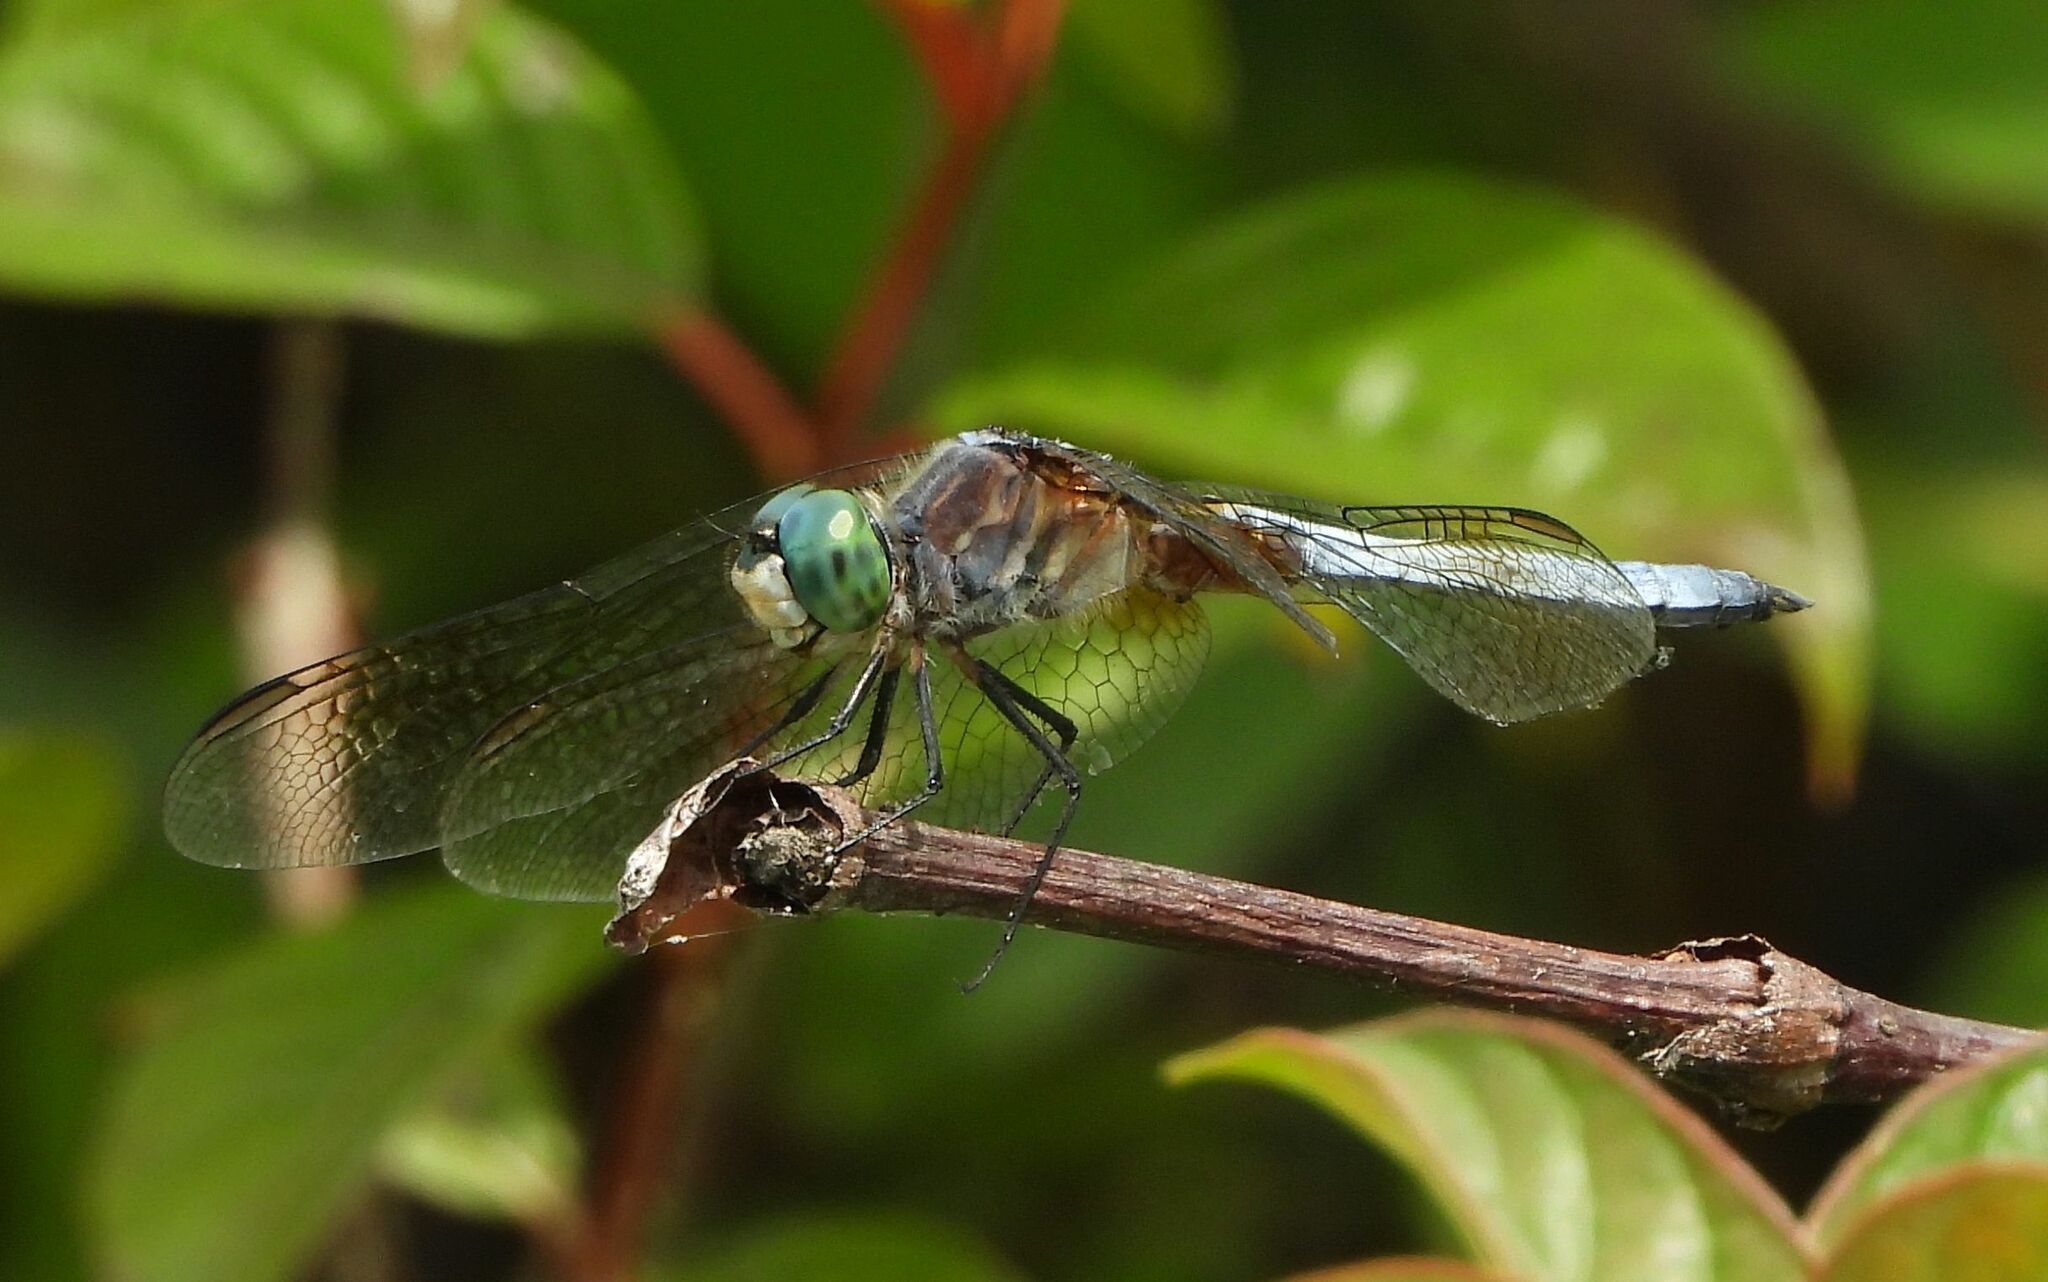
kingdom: Animalia
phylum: Arthropoda
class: Insecta
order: Odonata
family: Libellulidae
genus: Pachydiplax
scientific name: Pachydiplax longipennis
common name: Blue dasher
